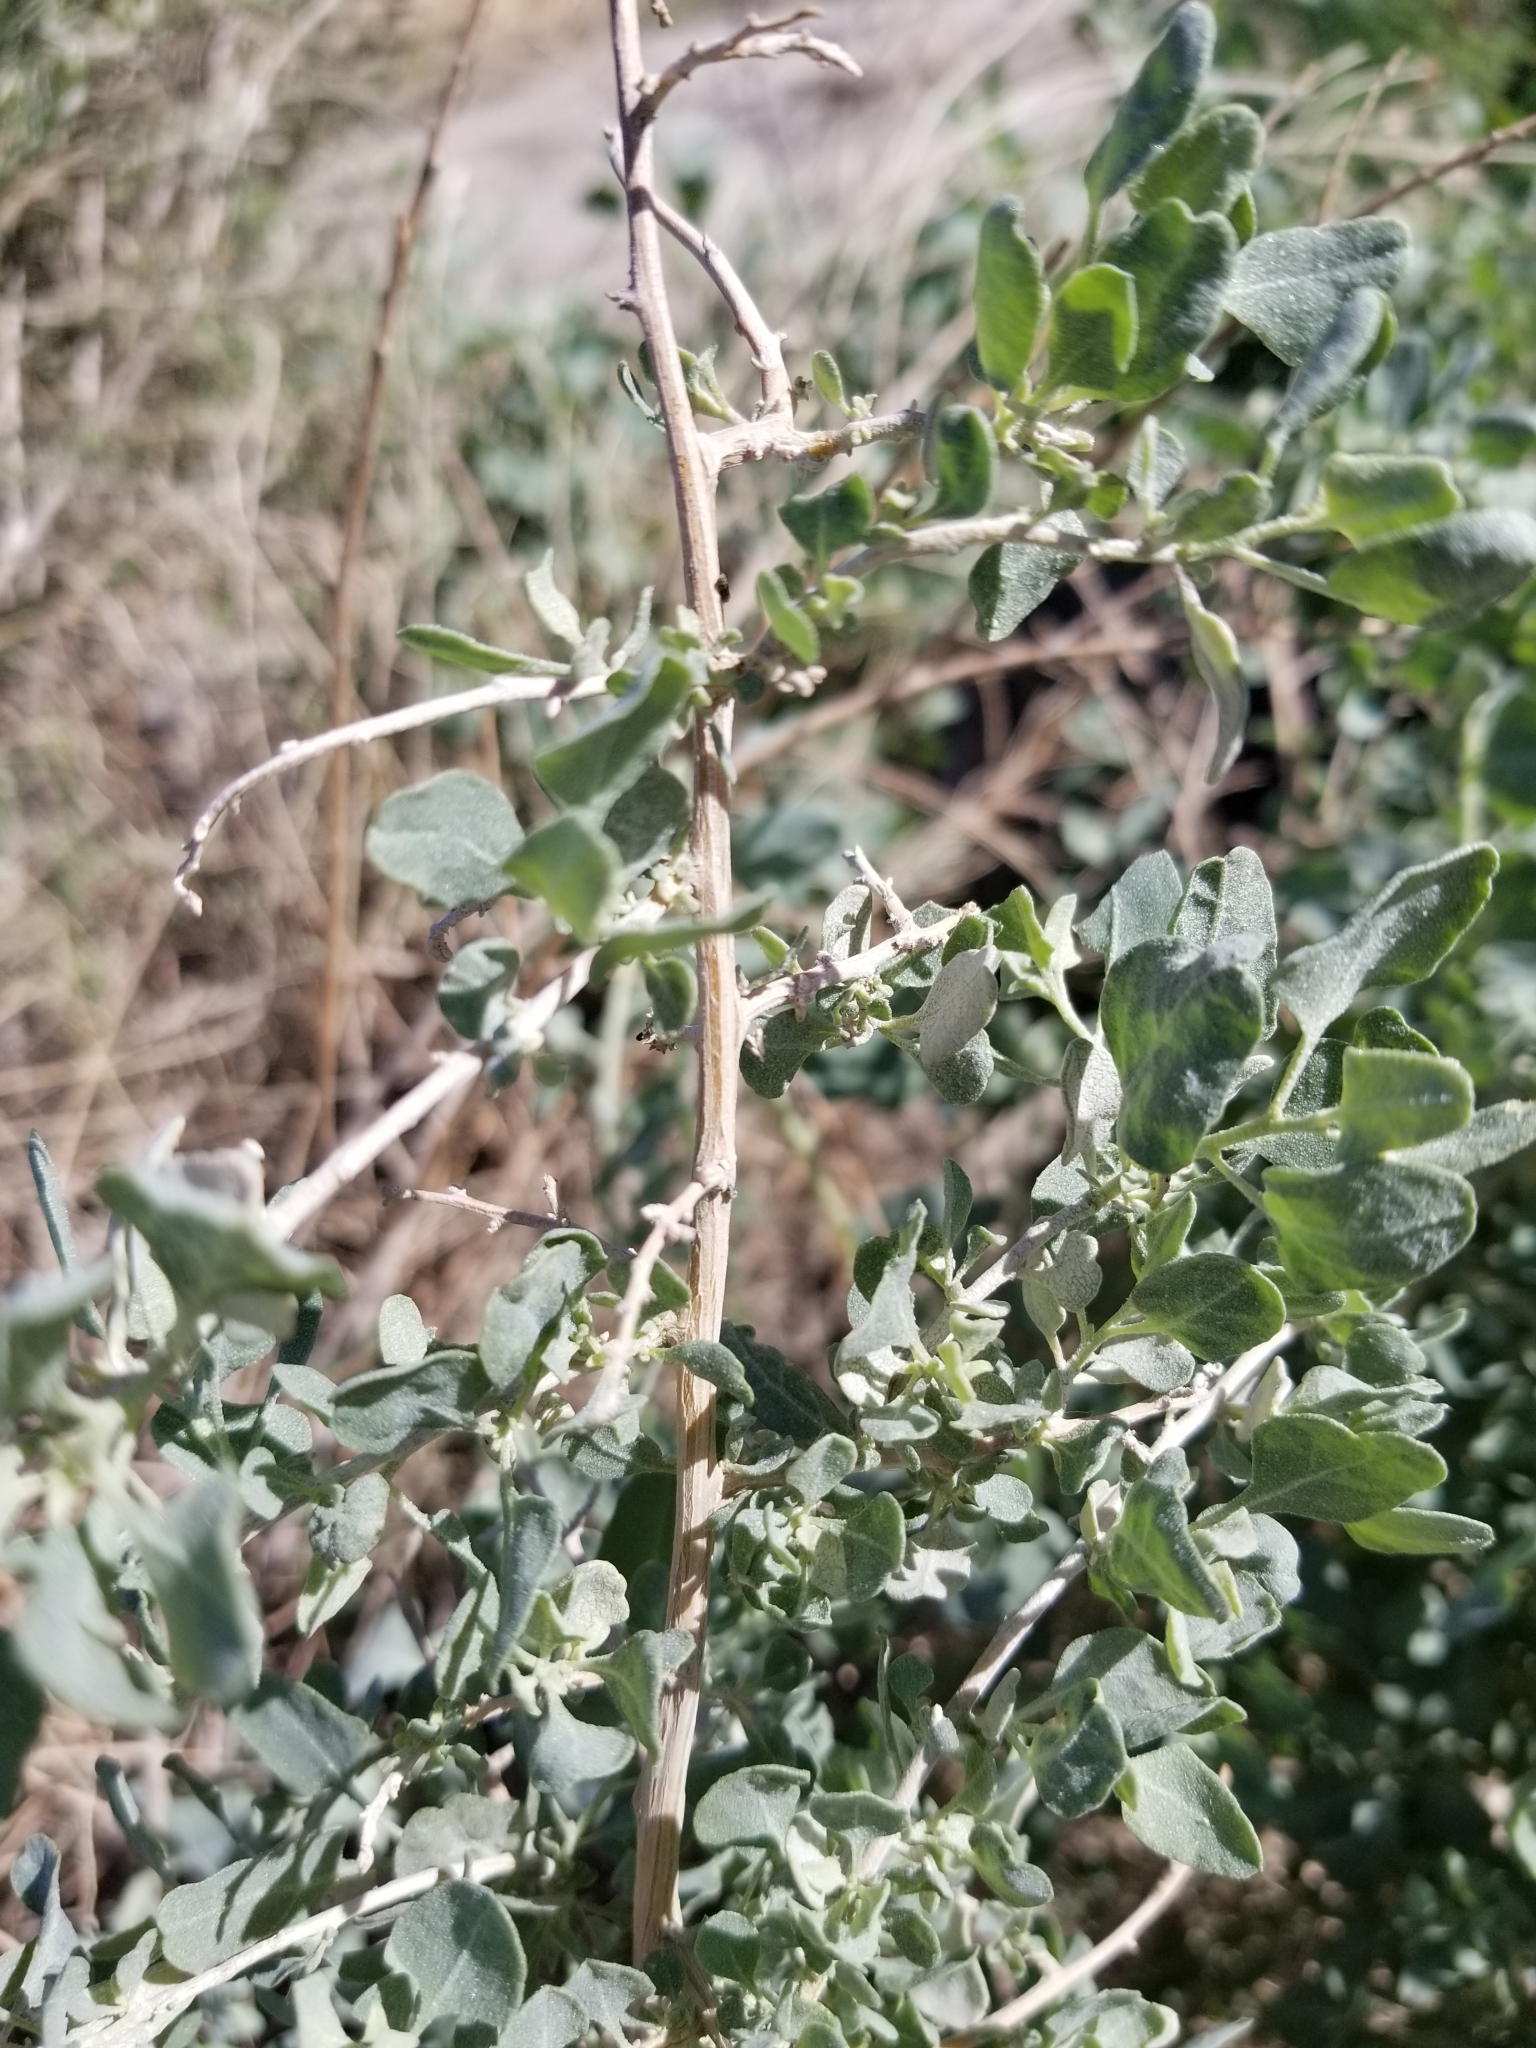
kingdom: Plantae
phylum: Tracheophyta
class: Magnoliopsida
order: Caryophyllales
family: Amaranthaceae
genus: Atriplex
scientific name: Atriplex lentiformis
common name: Big saltbush
